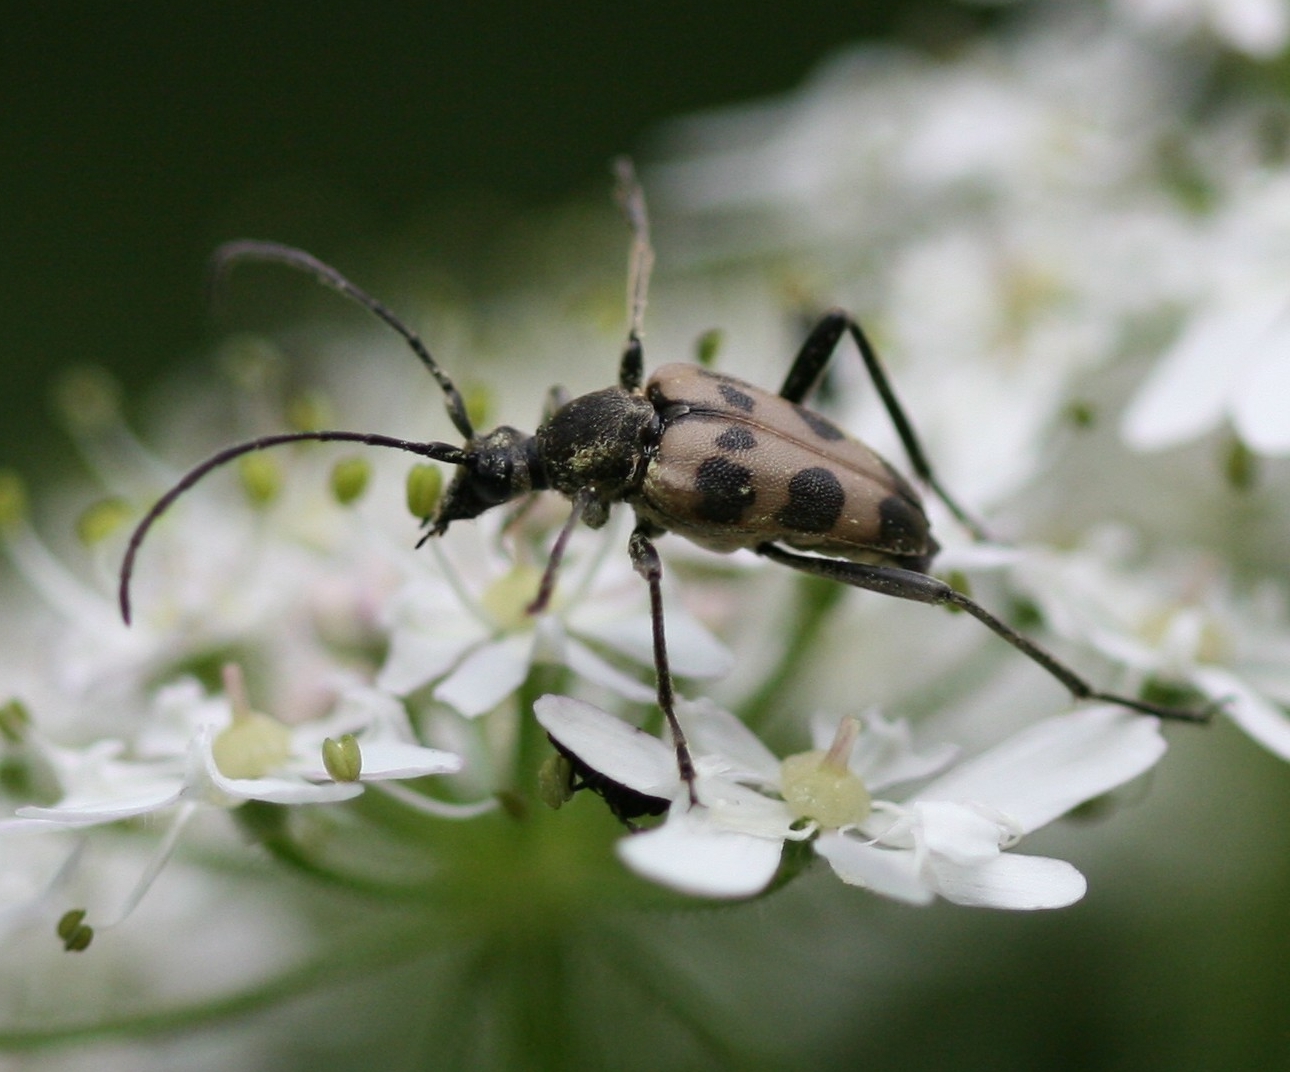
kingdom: Animalia
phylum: Arthropoda
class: Insecta
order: Coleoptera
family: Cerambycidae
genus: Pachytodes
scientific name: Pachytodes cerambyciformis
